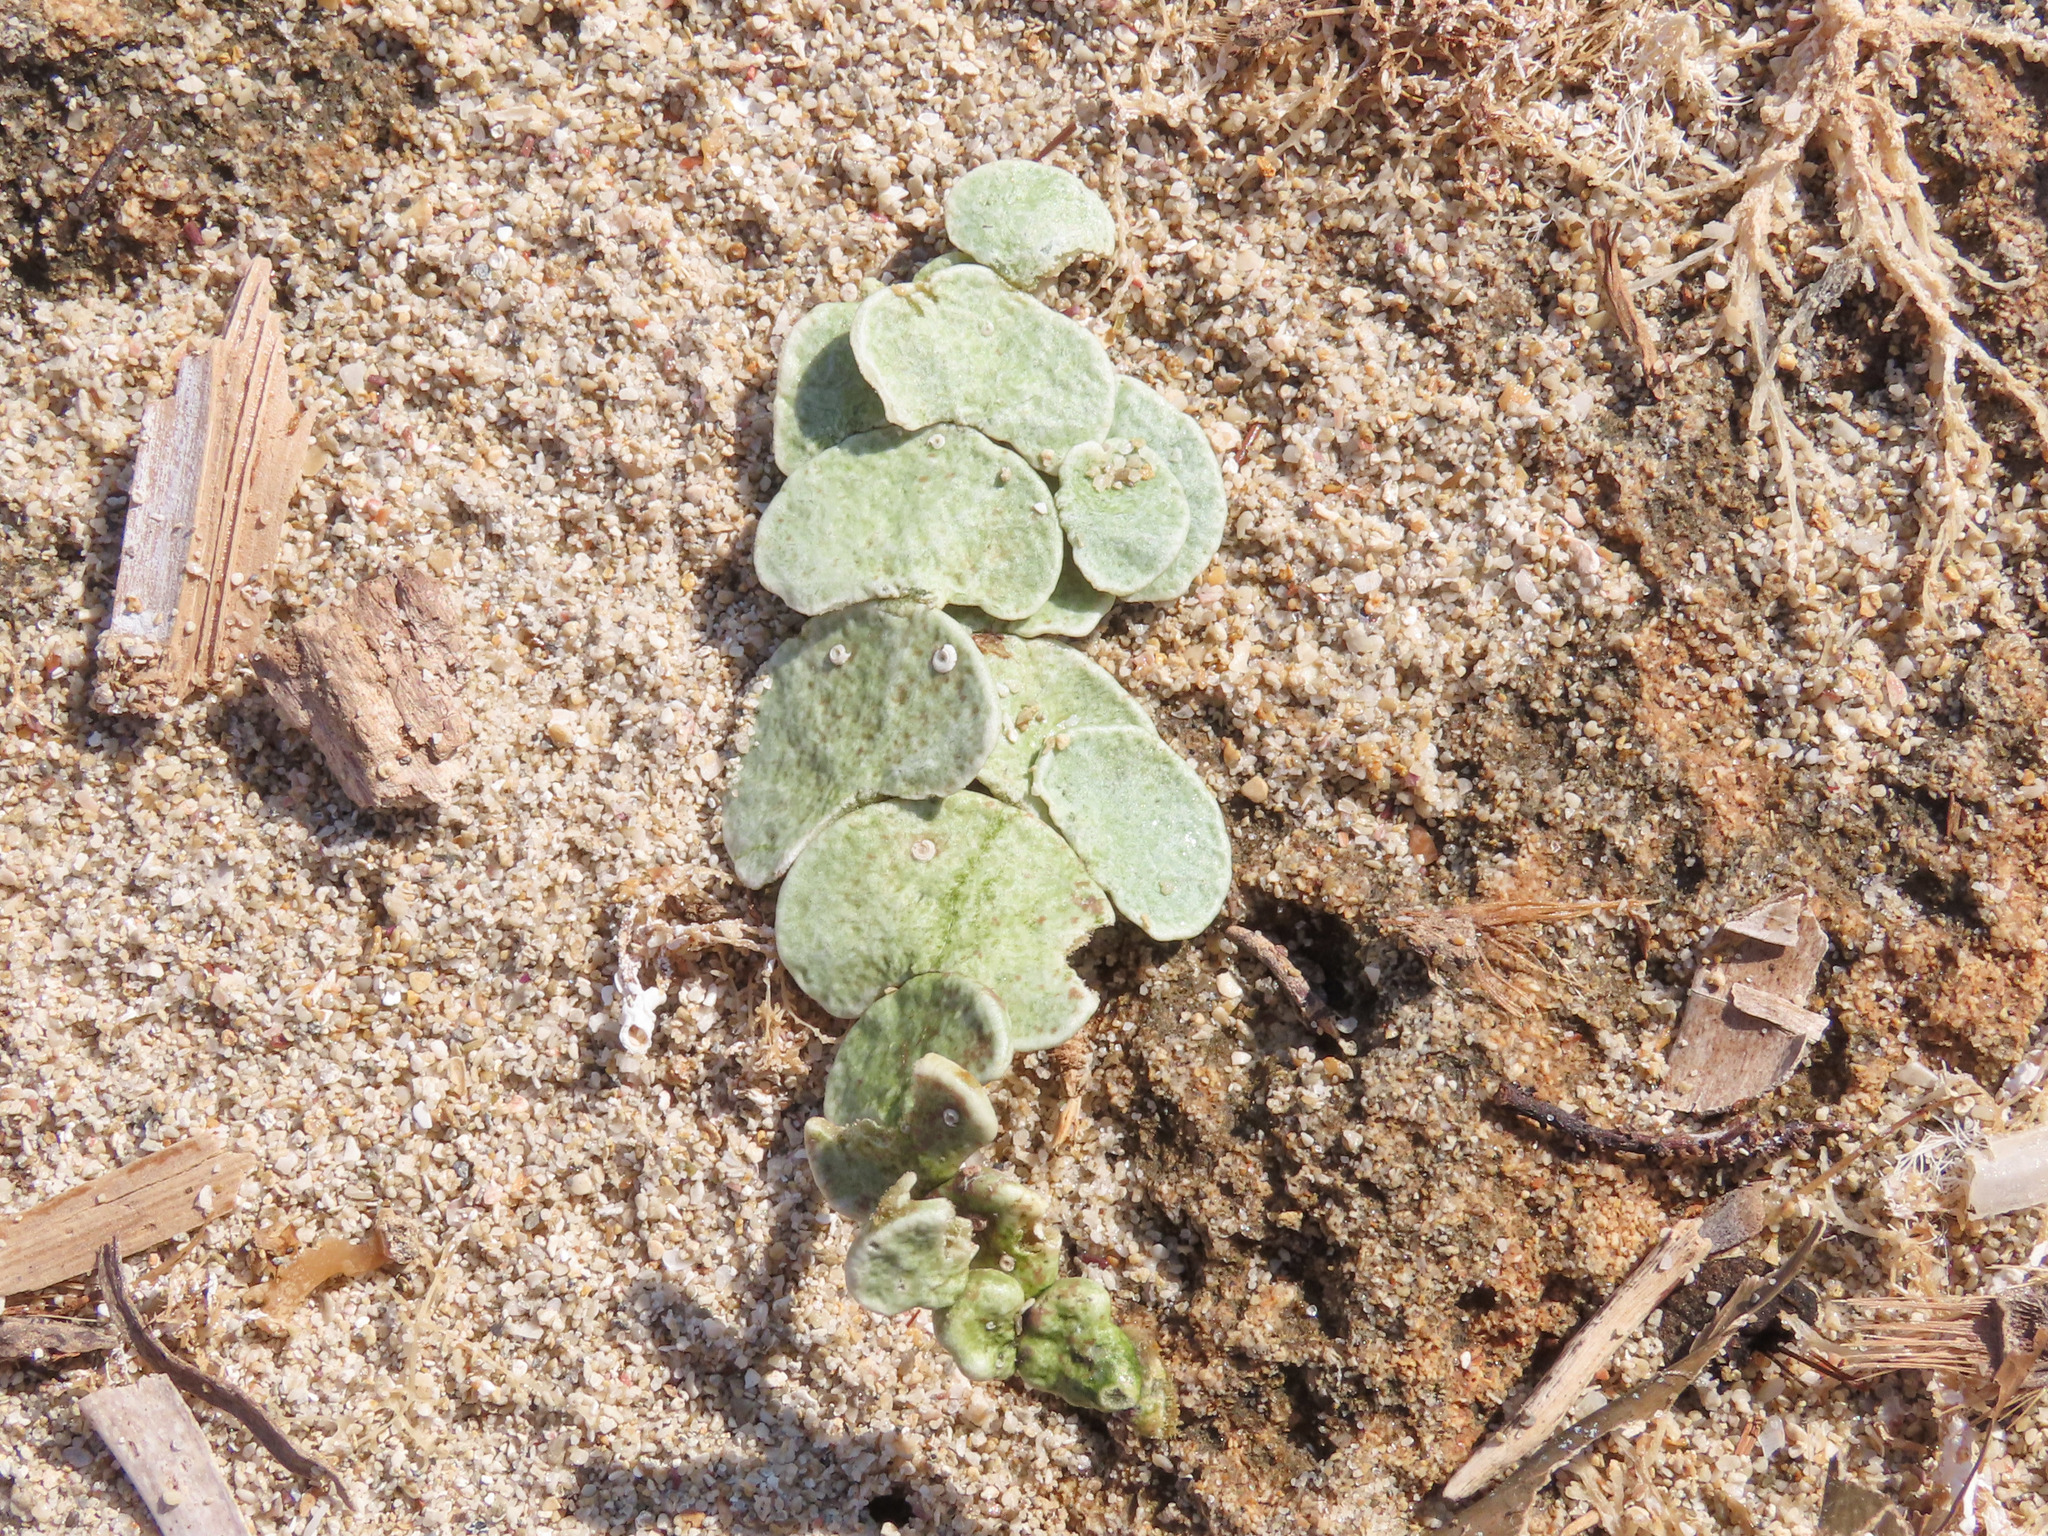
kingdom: Plantae
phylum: Chlorophyta
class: Ulvophyceae
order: Bryopsidales
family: Halimedaceae
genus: Halimeda
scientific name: Halimeda tuna
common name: Stalked lettuce leaf algae
